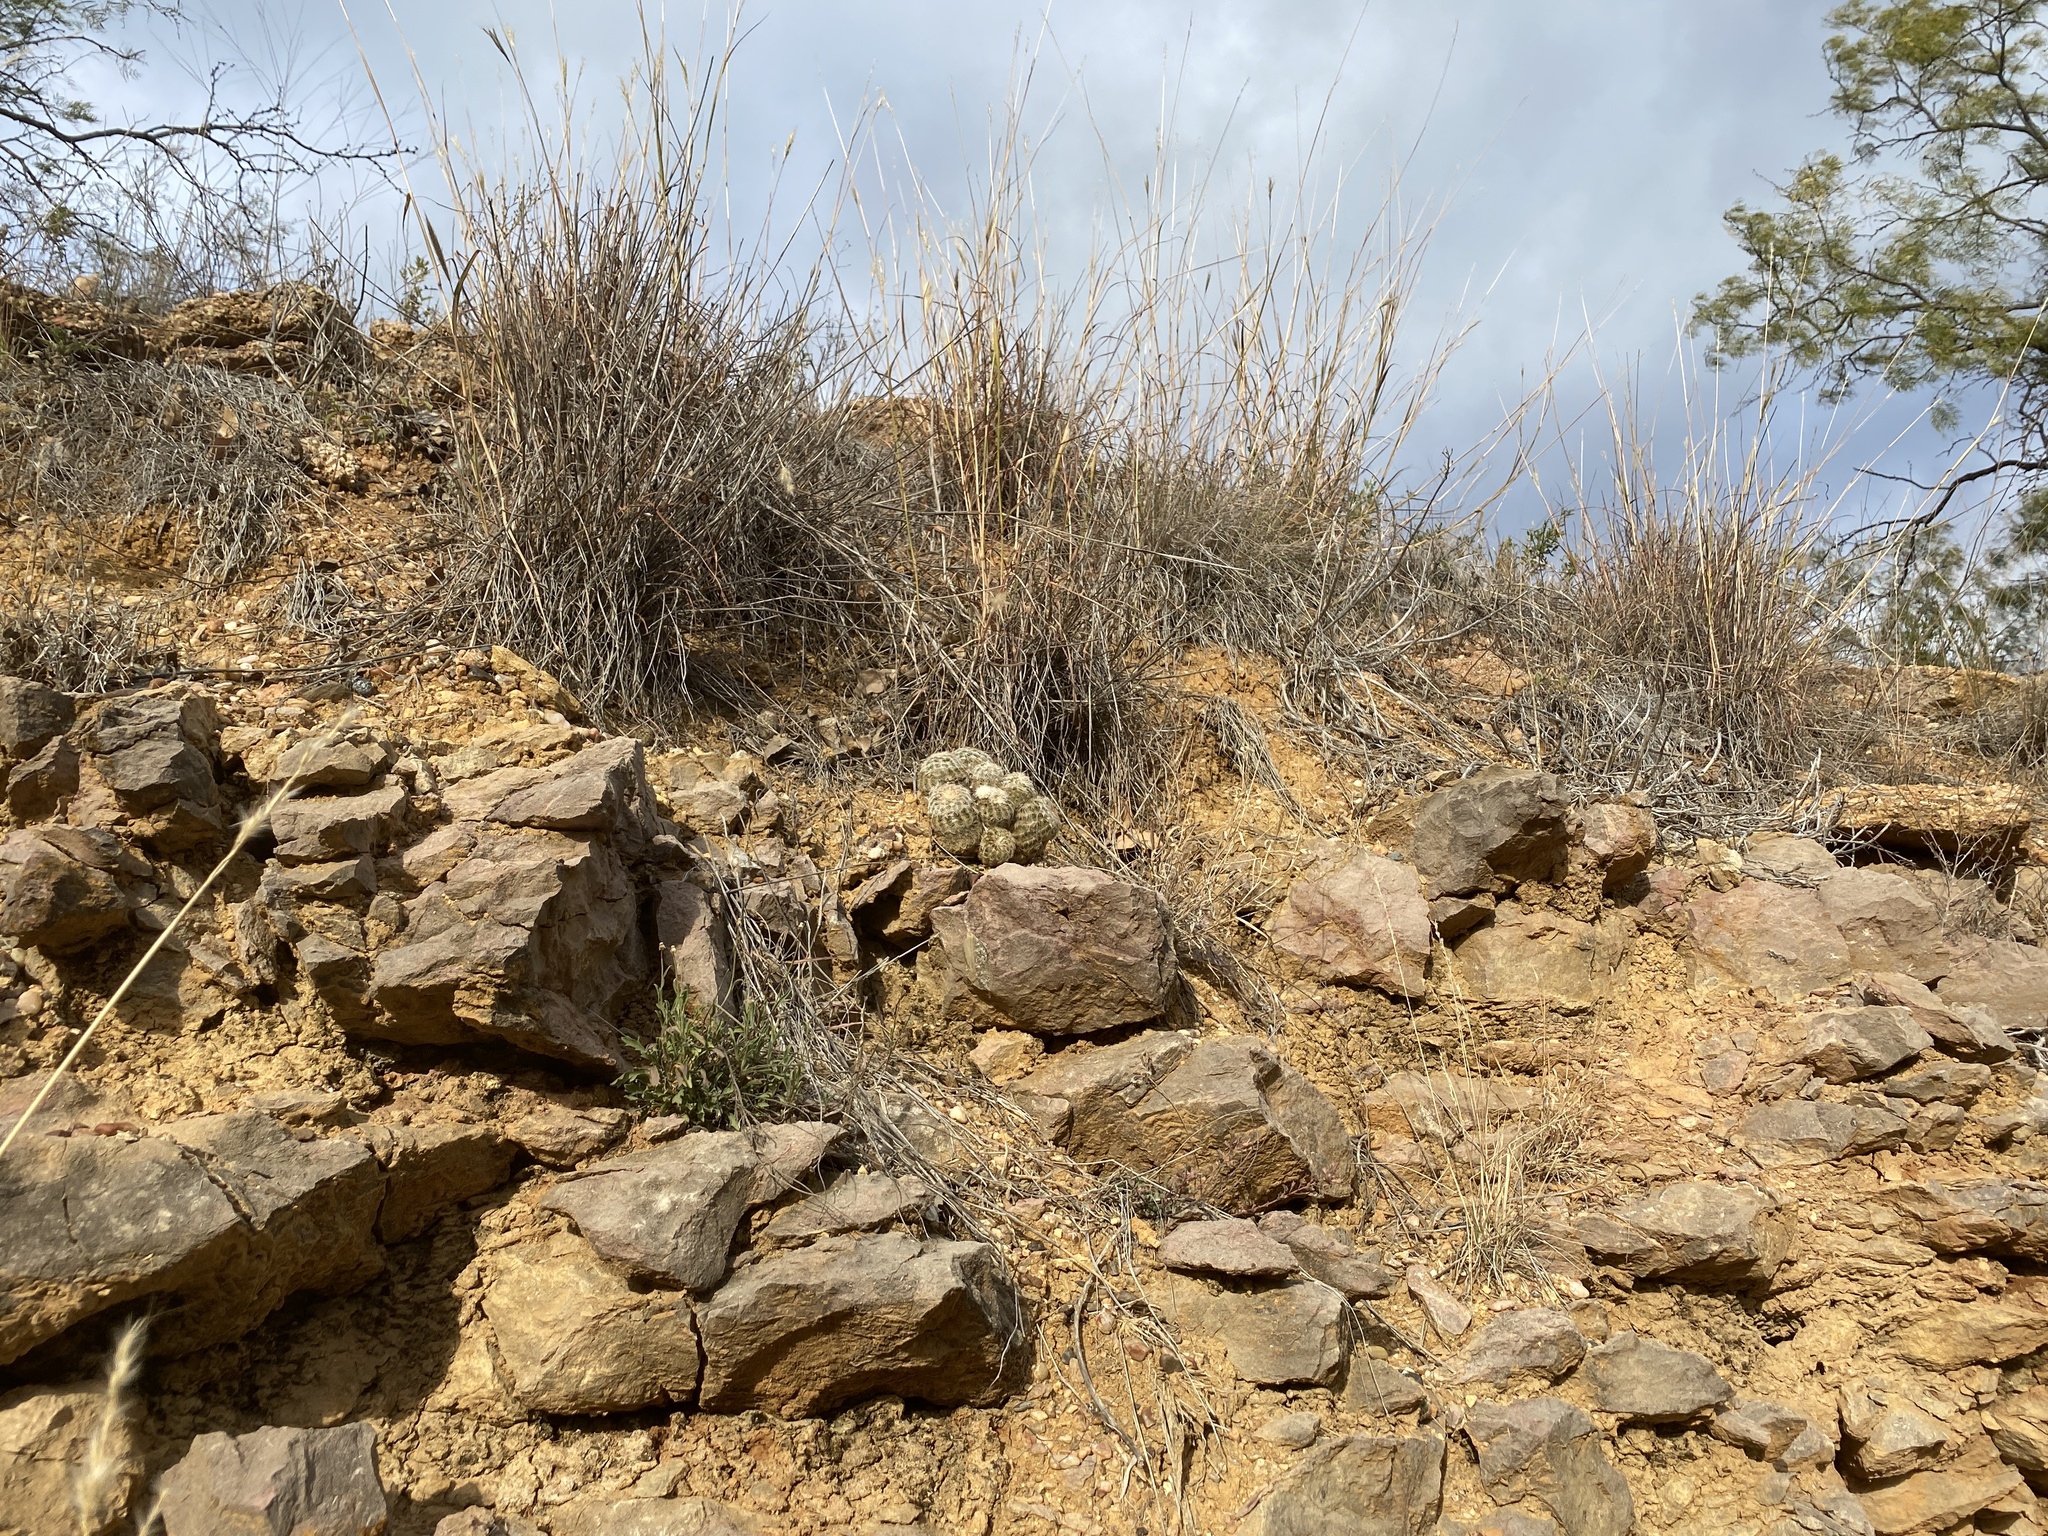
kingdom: Plantae
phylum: Tracheophyta
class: Magnoliopsida
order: Caryophyllales
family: Cactaceae
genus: Echinocereus
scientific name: Echinocereus reichenbachii
